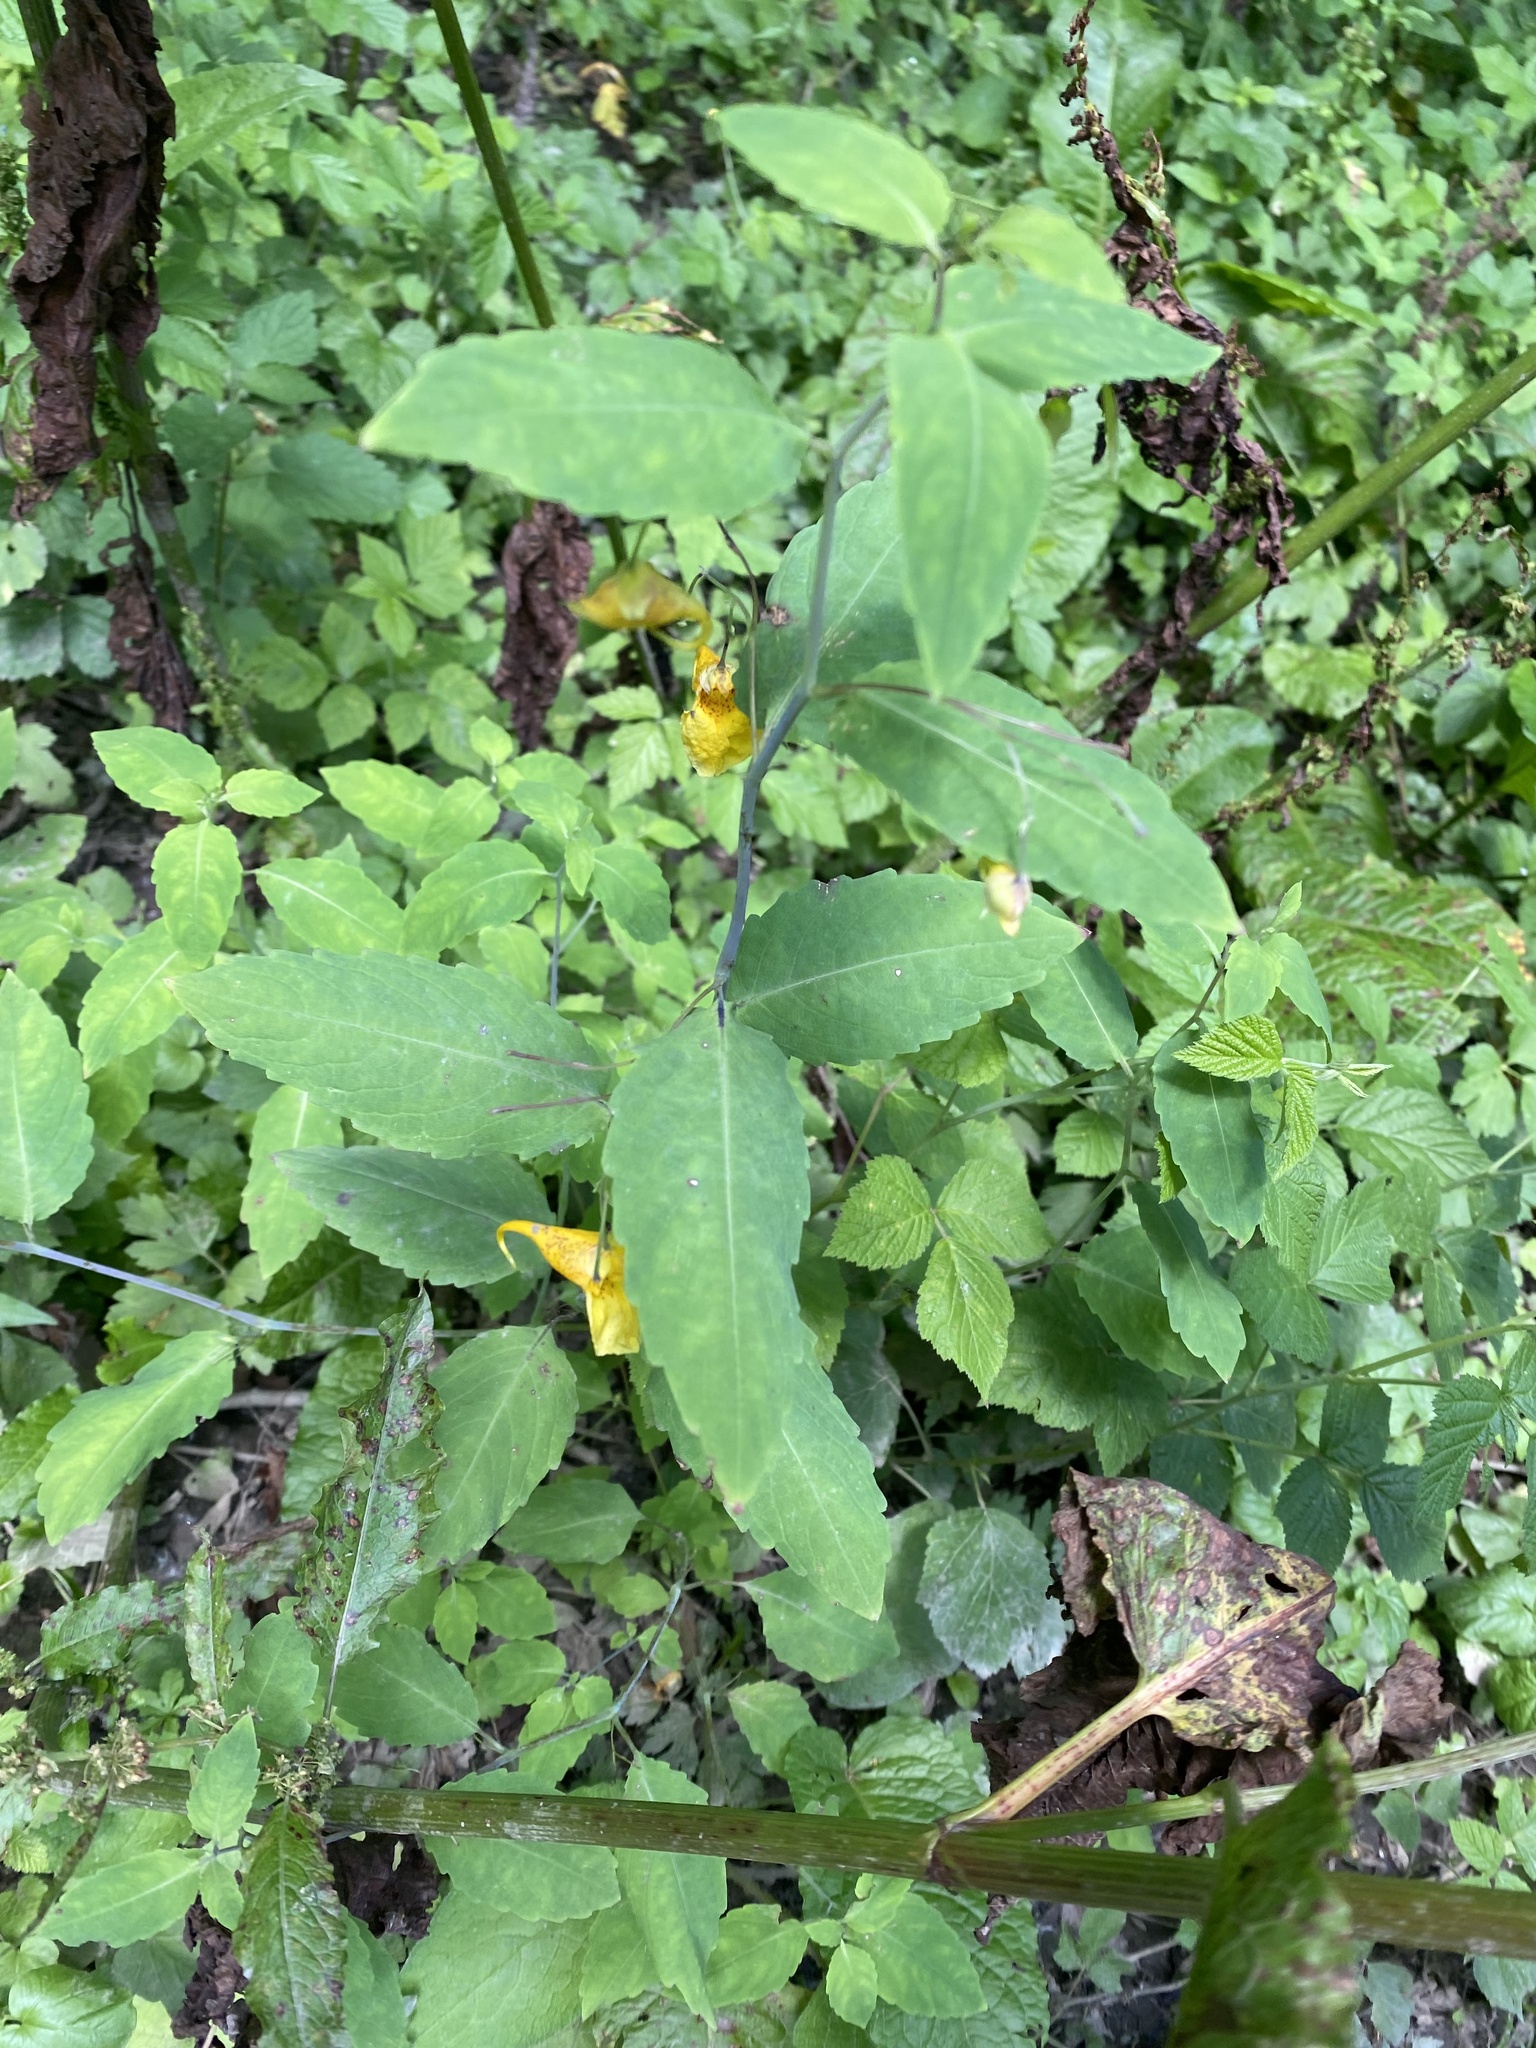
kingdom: Plantae
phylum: Tracheophyta
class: Magnoliopsida
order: Ericales
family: Balsaminaceae
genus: Impatiens
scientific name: Impatiens noli-tangere
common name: Touch-me-not balsam
